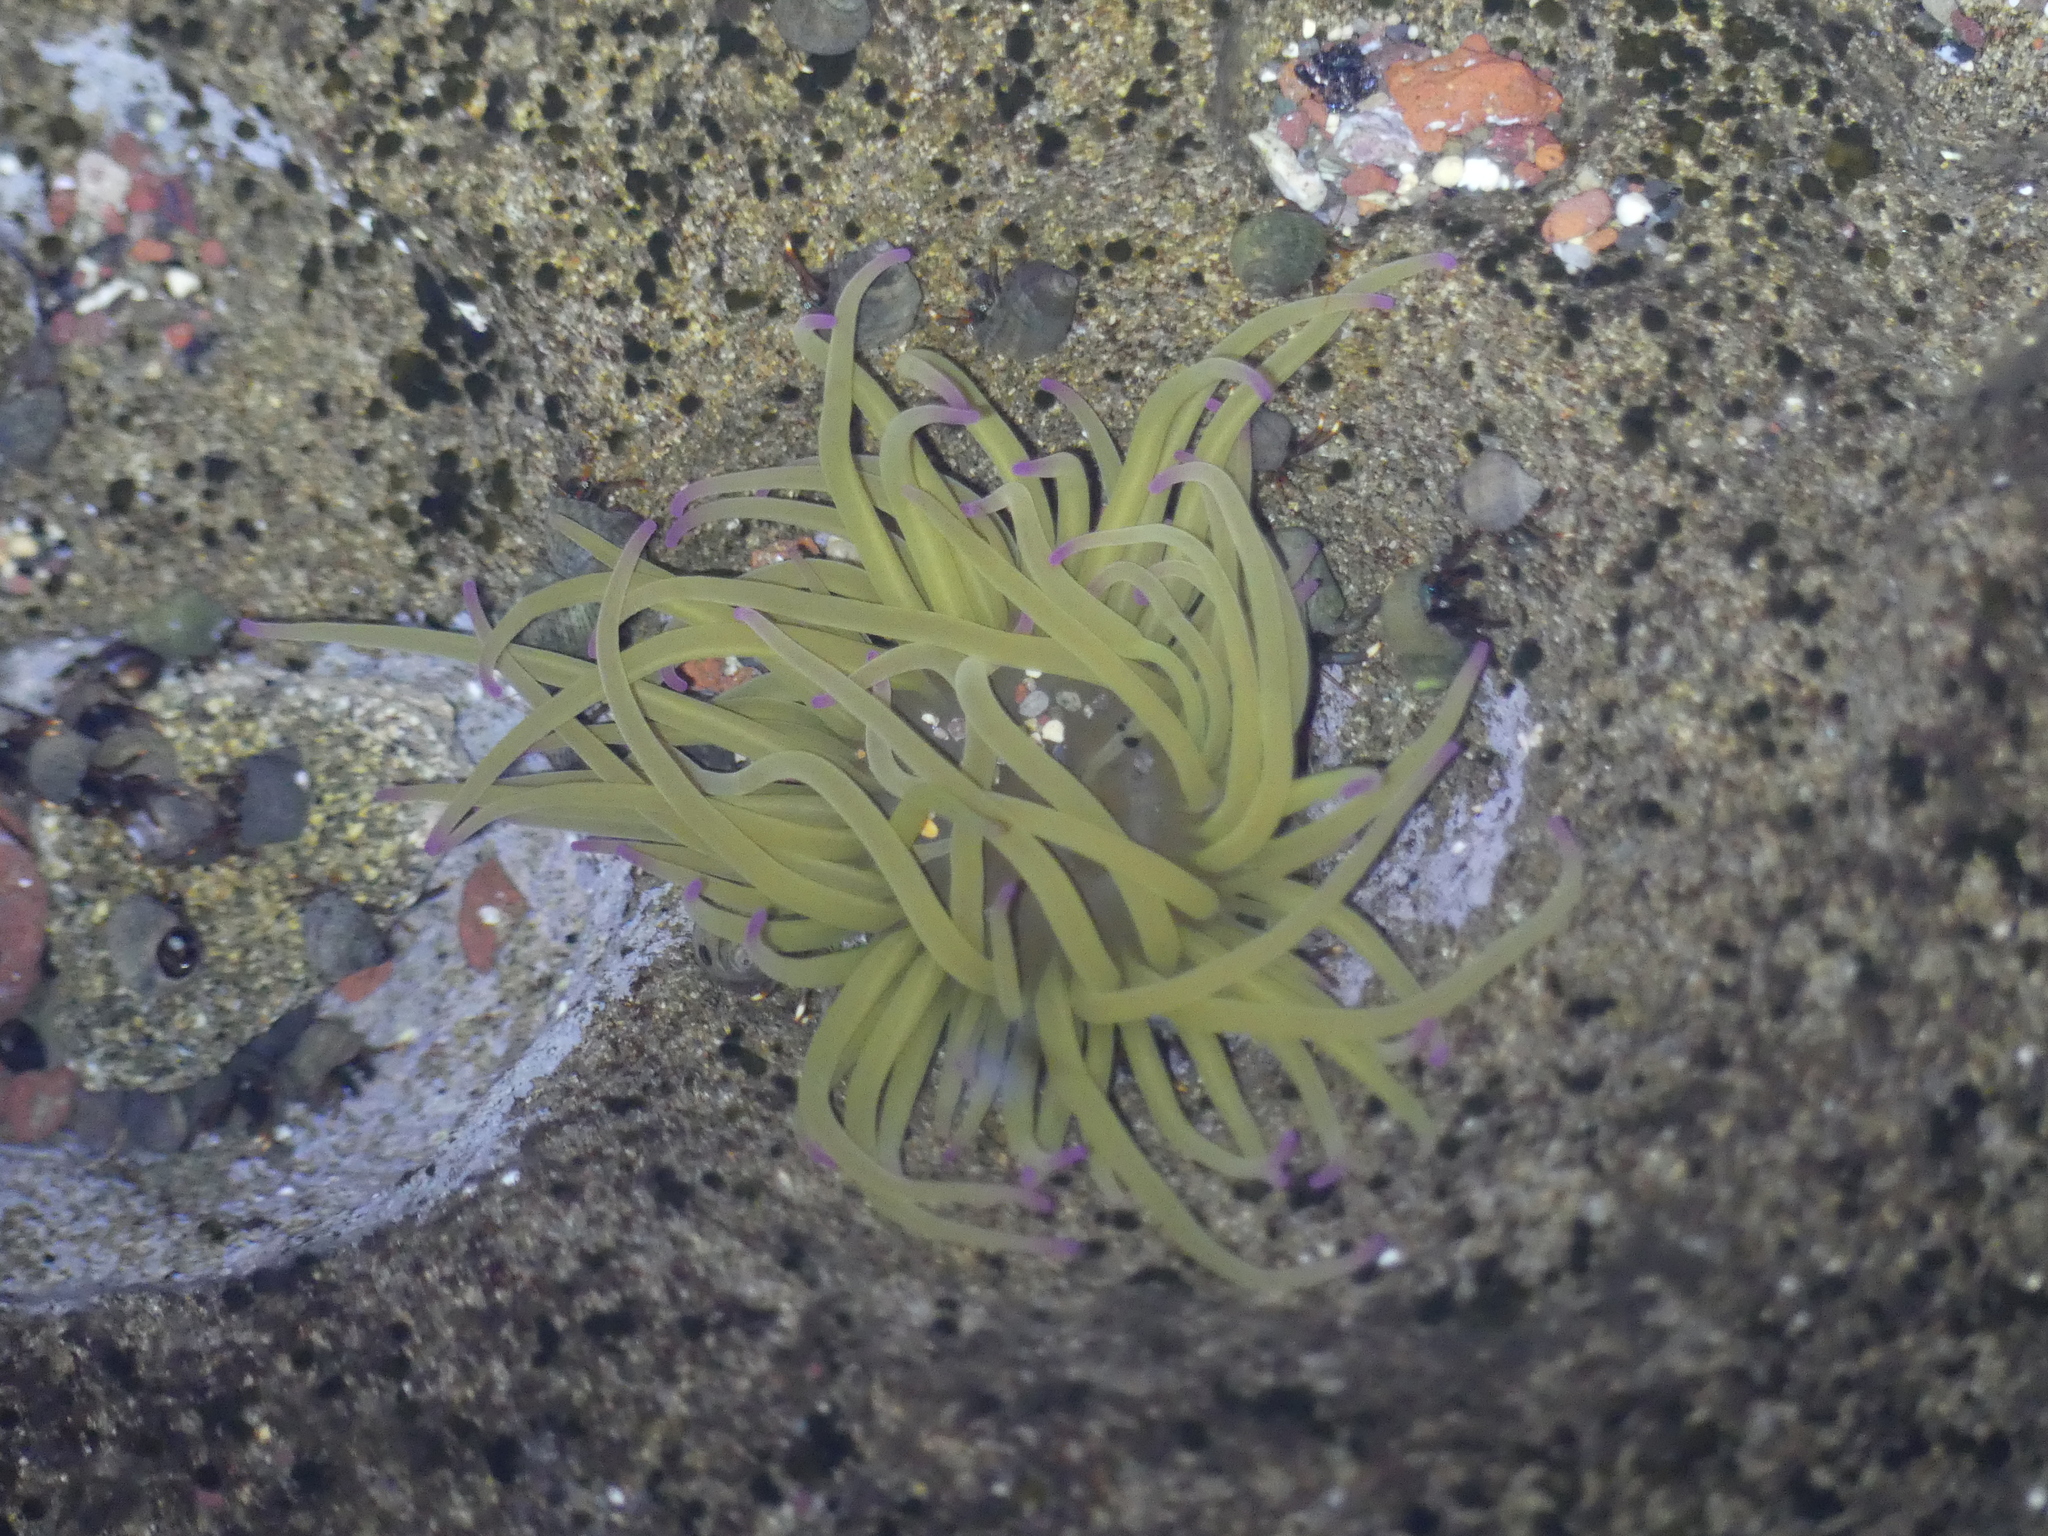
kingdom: Animalia
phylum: Cnidaria
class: Anthozoa
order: Actiniaria
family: Actiniidae
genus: Anemonia
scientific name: Anemonia viridis
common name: Snakelocks anemone
